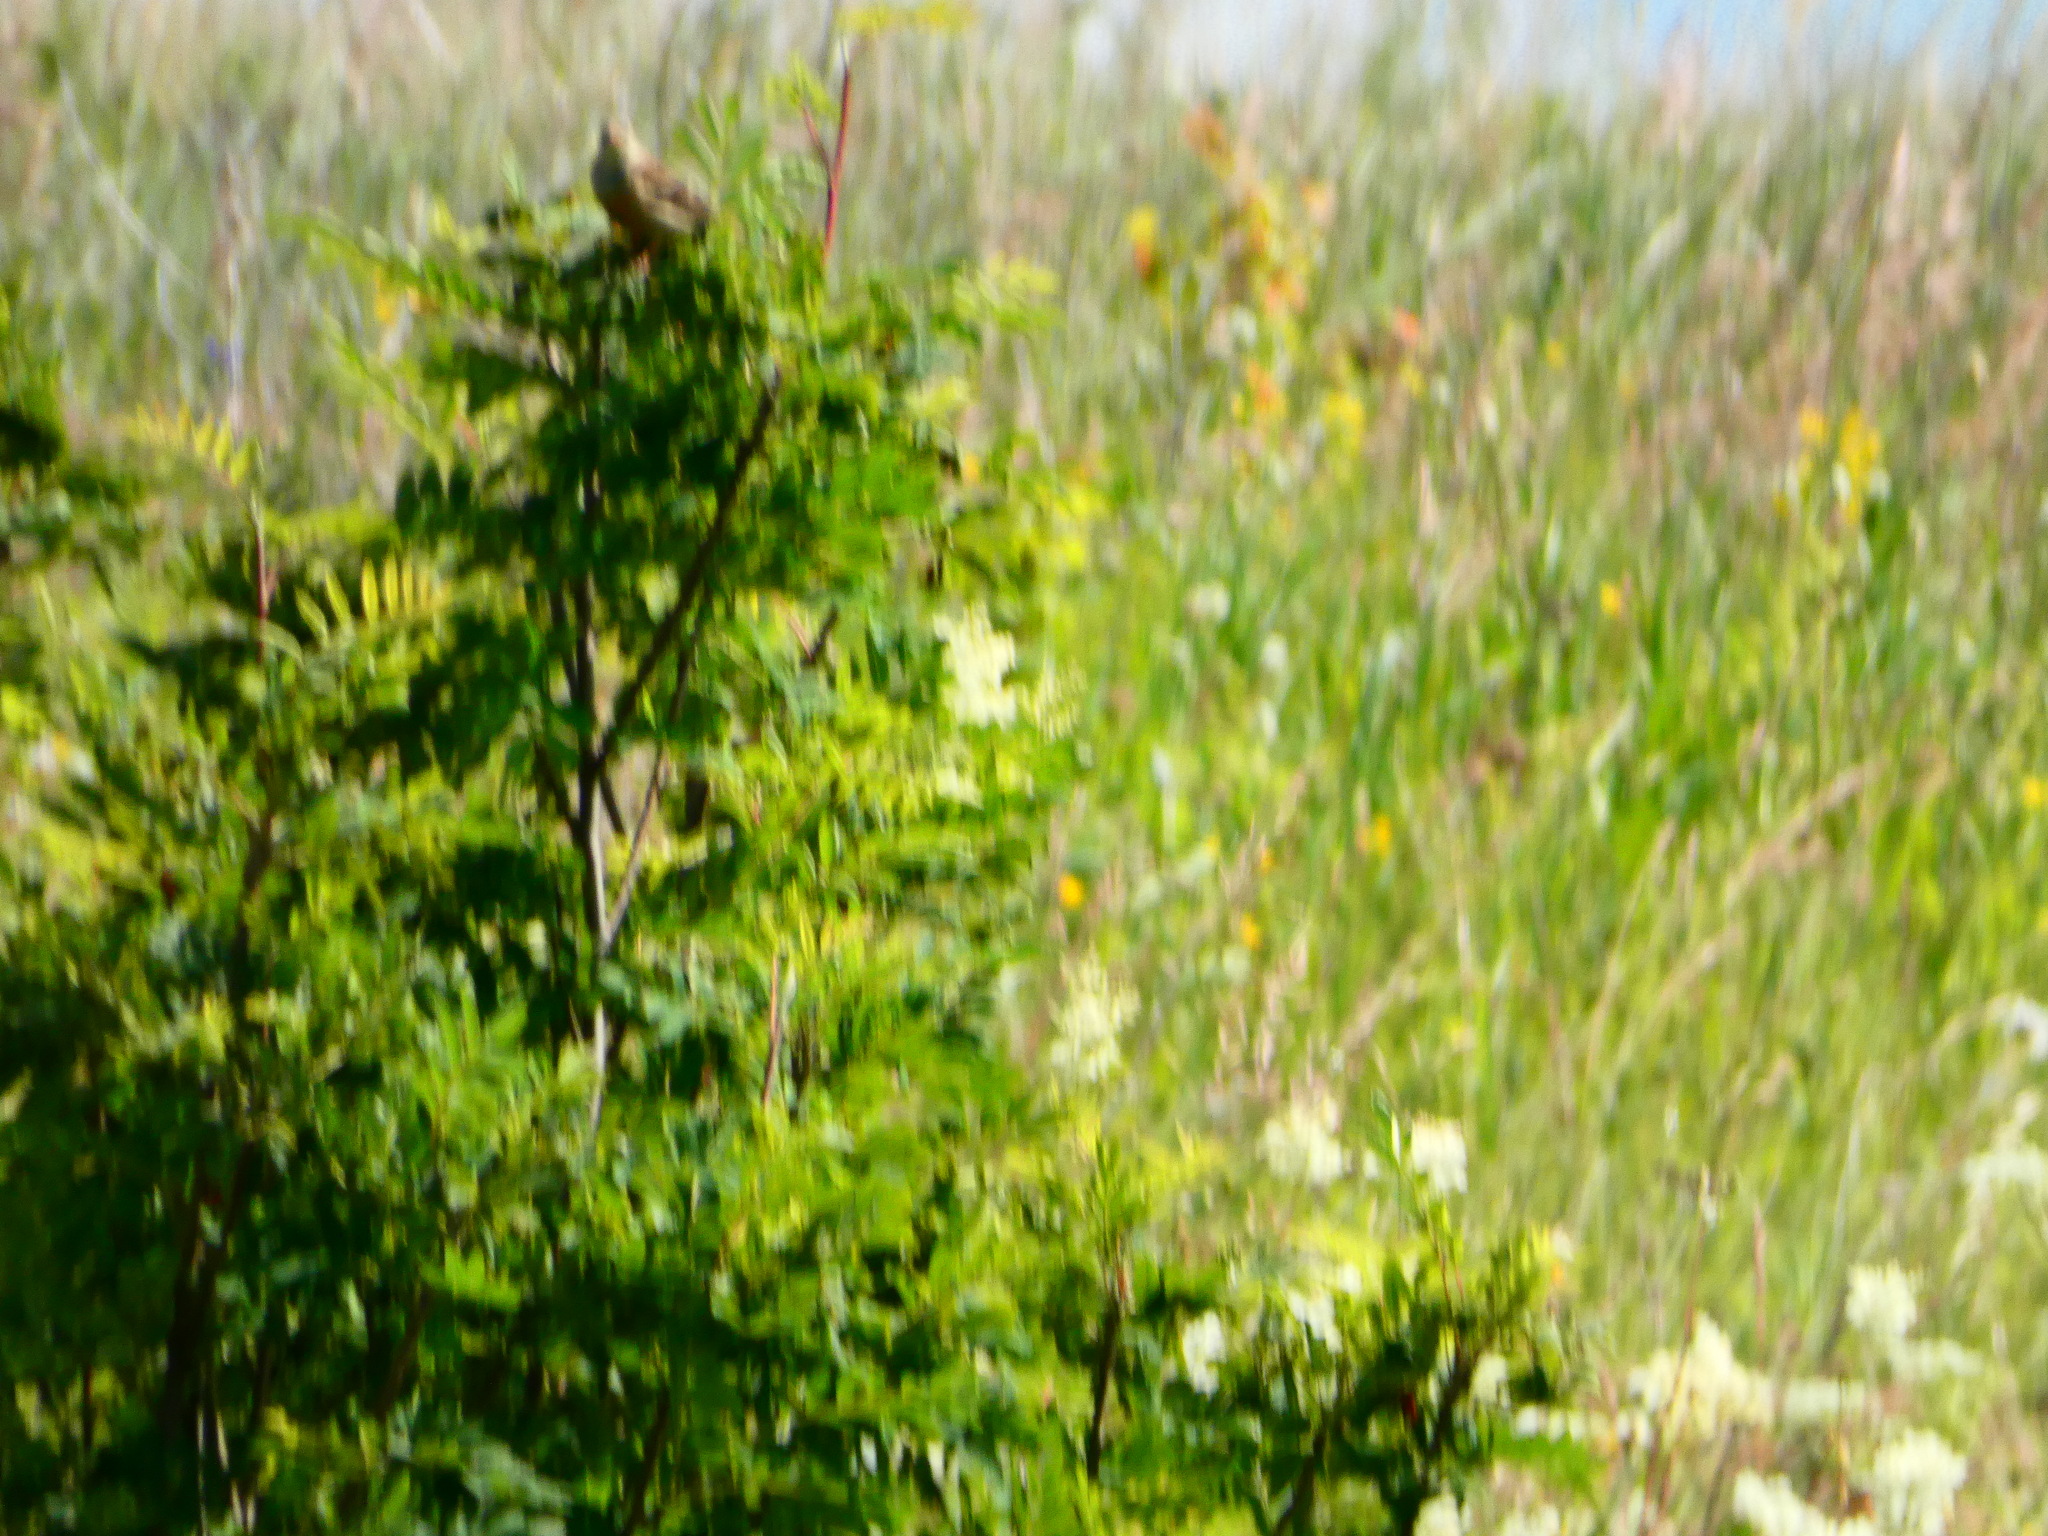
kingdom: Animalia
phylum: Chordata
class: Aves
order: Passeriformes
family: Emberizidae
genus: Emberiza
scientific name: Emberiza hortulana
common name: Ortolan bunting
